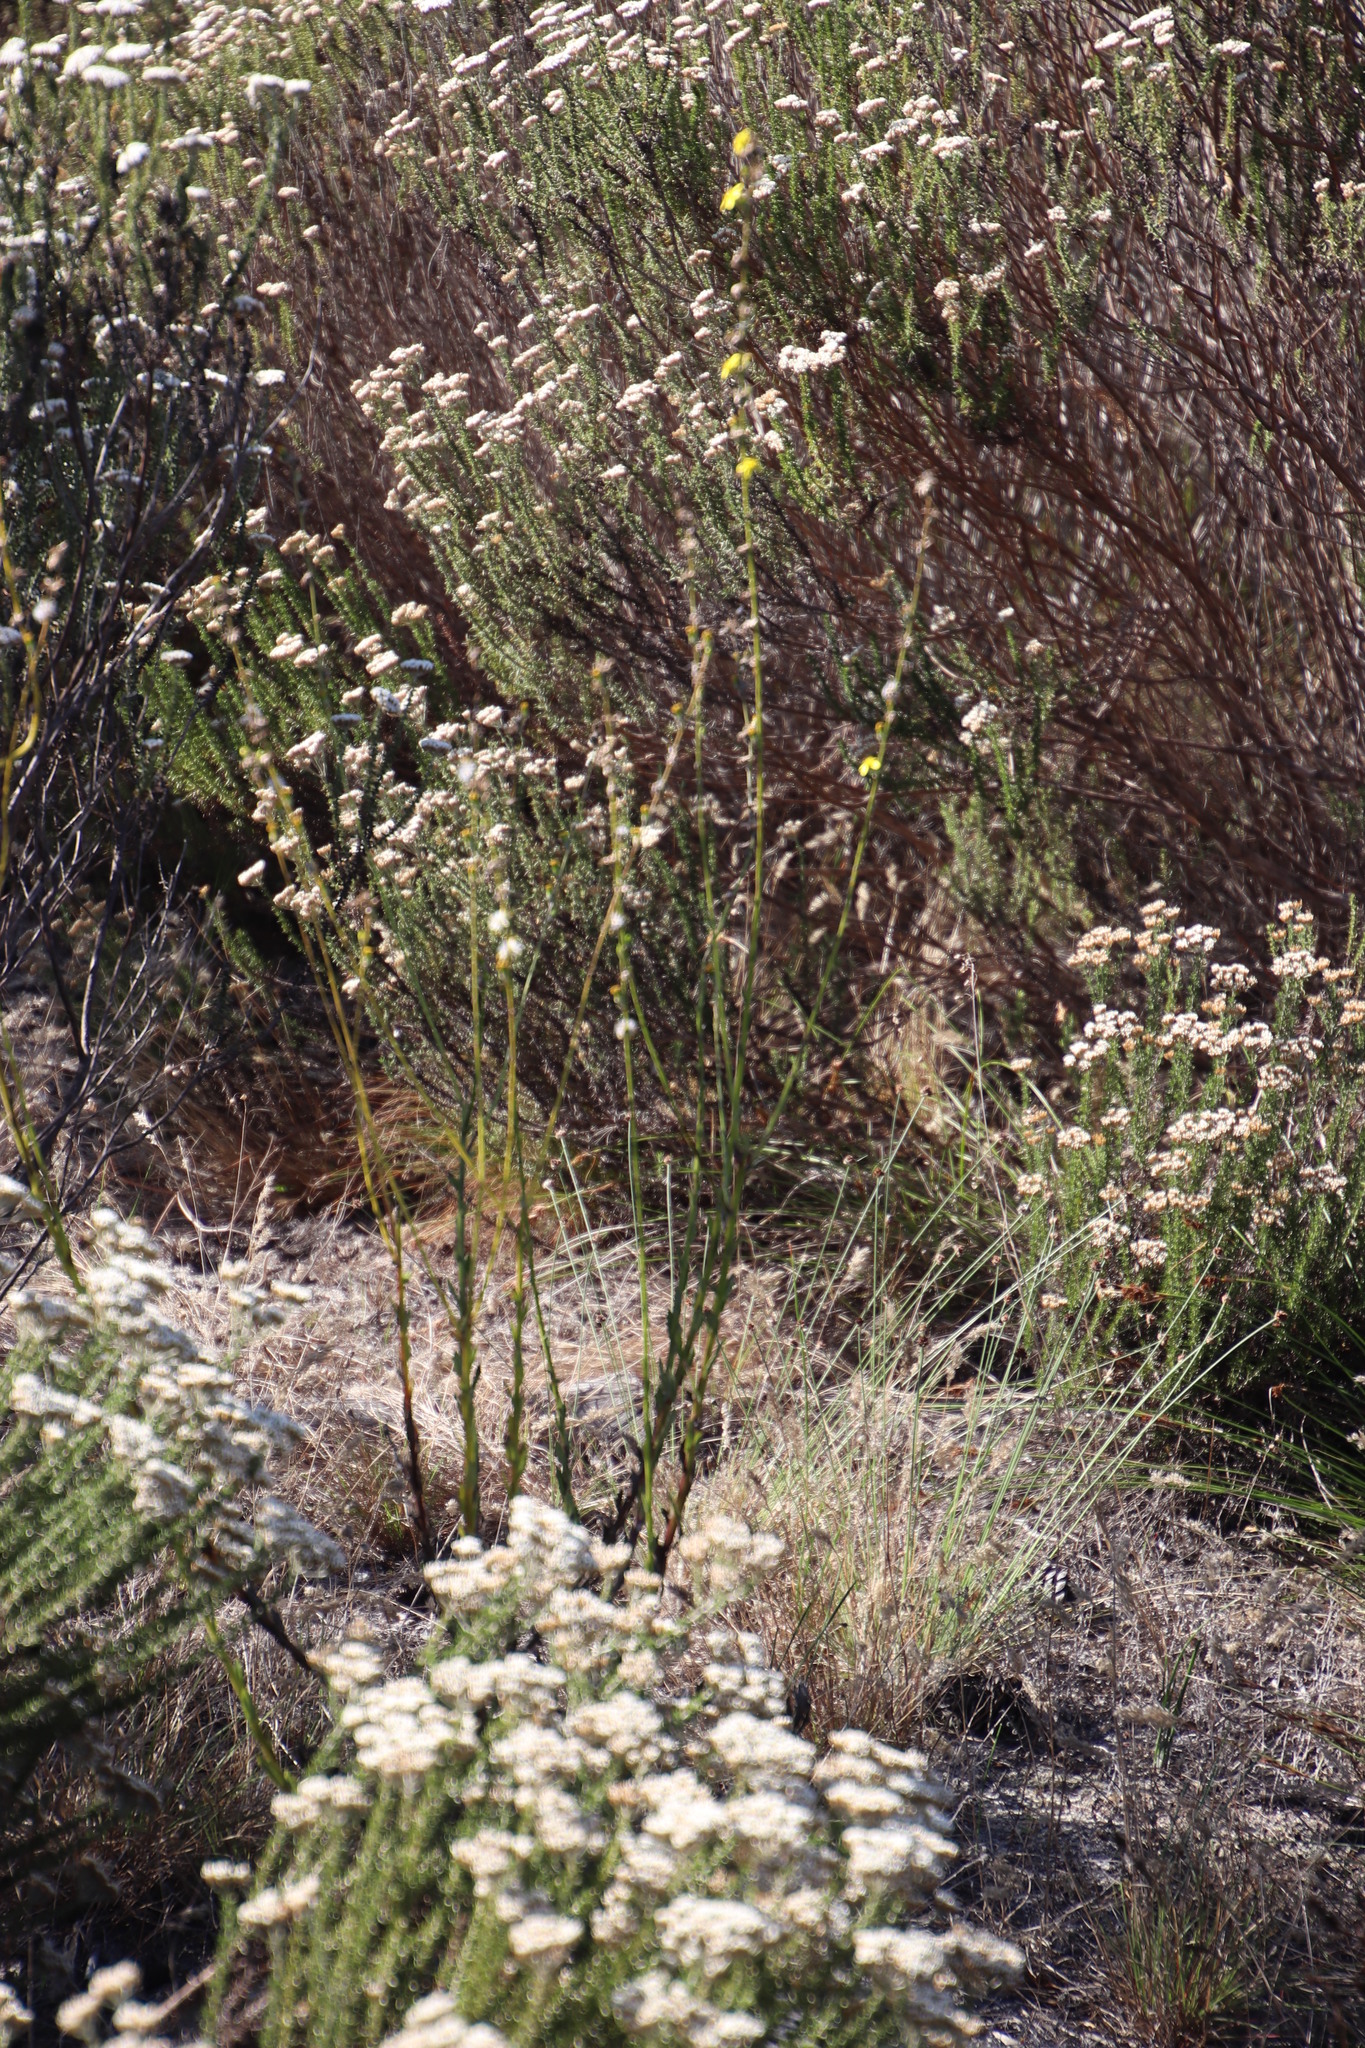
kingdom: Plantae
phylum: Tracheophyta
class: Magnoliopsida
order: Asterales
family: Asteraceae
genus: Senecio
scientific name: Senecio pubigerus
